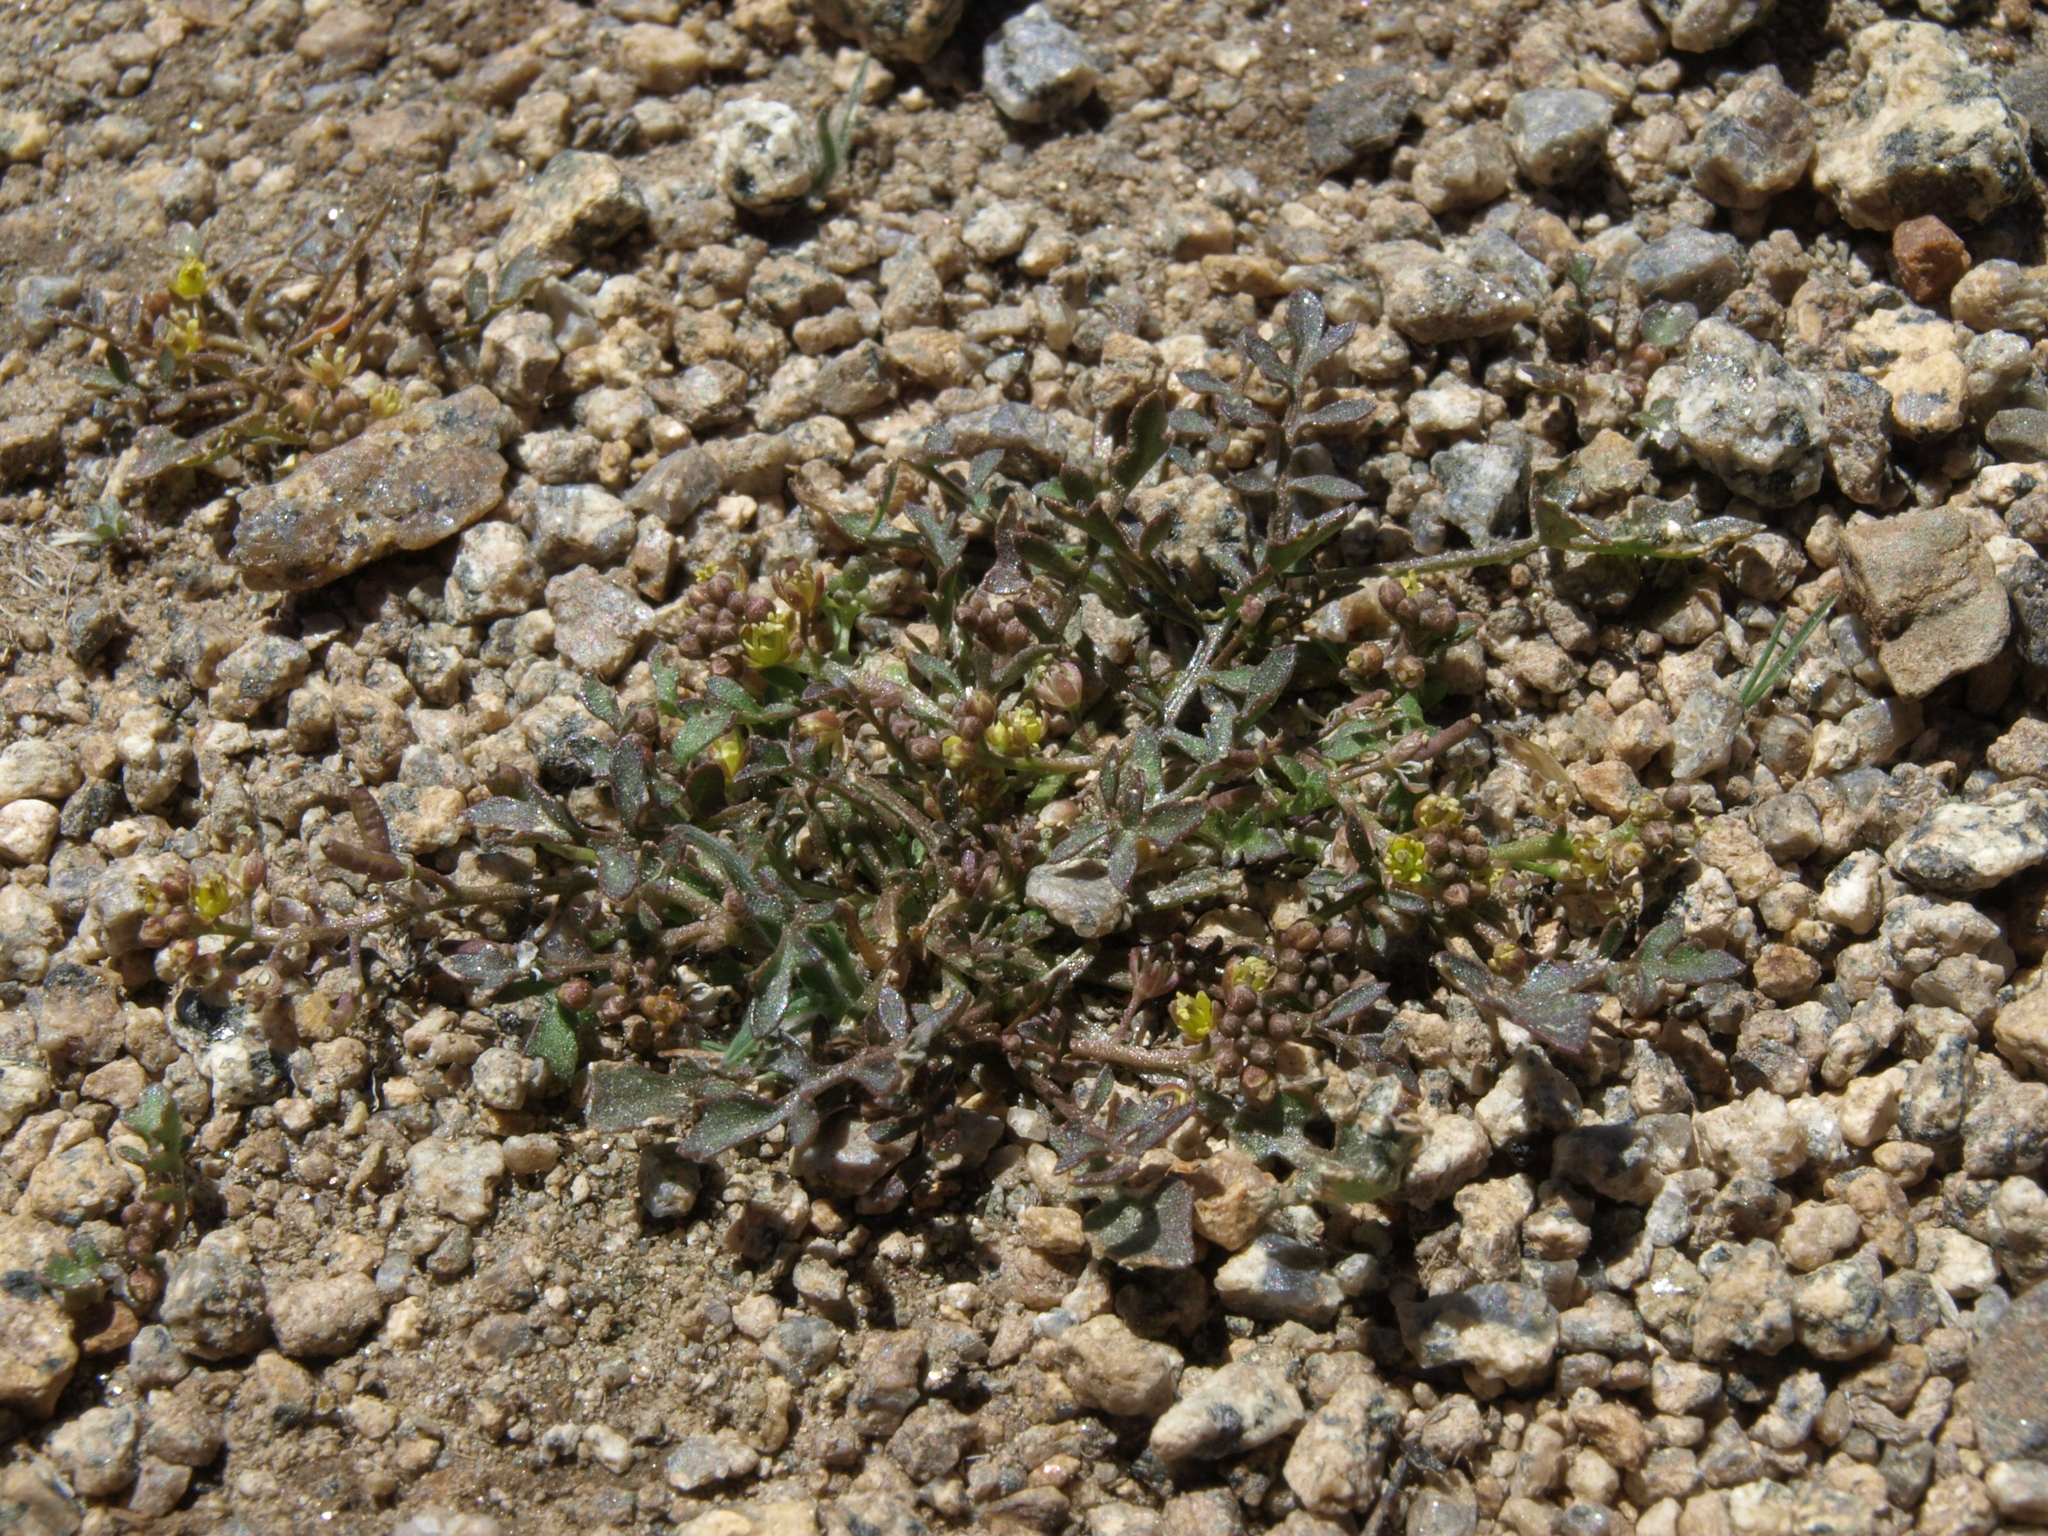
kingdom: Plantae
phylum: Tracheophyta
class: Magnoliopsida
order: Brassicales
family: Brassicaceae
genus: Rorippa
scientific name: Rorippa curvipes
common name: Blunt-leaved watercress
